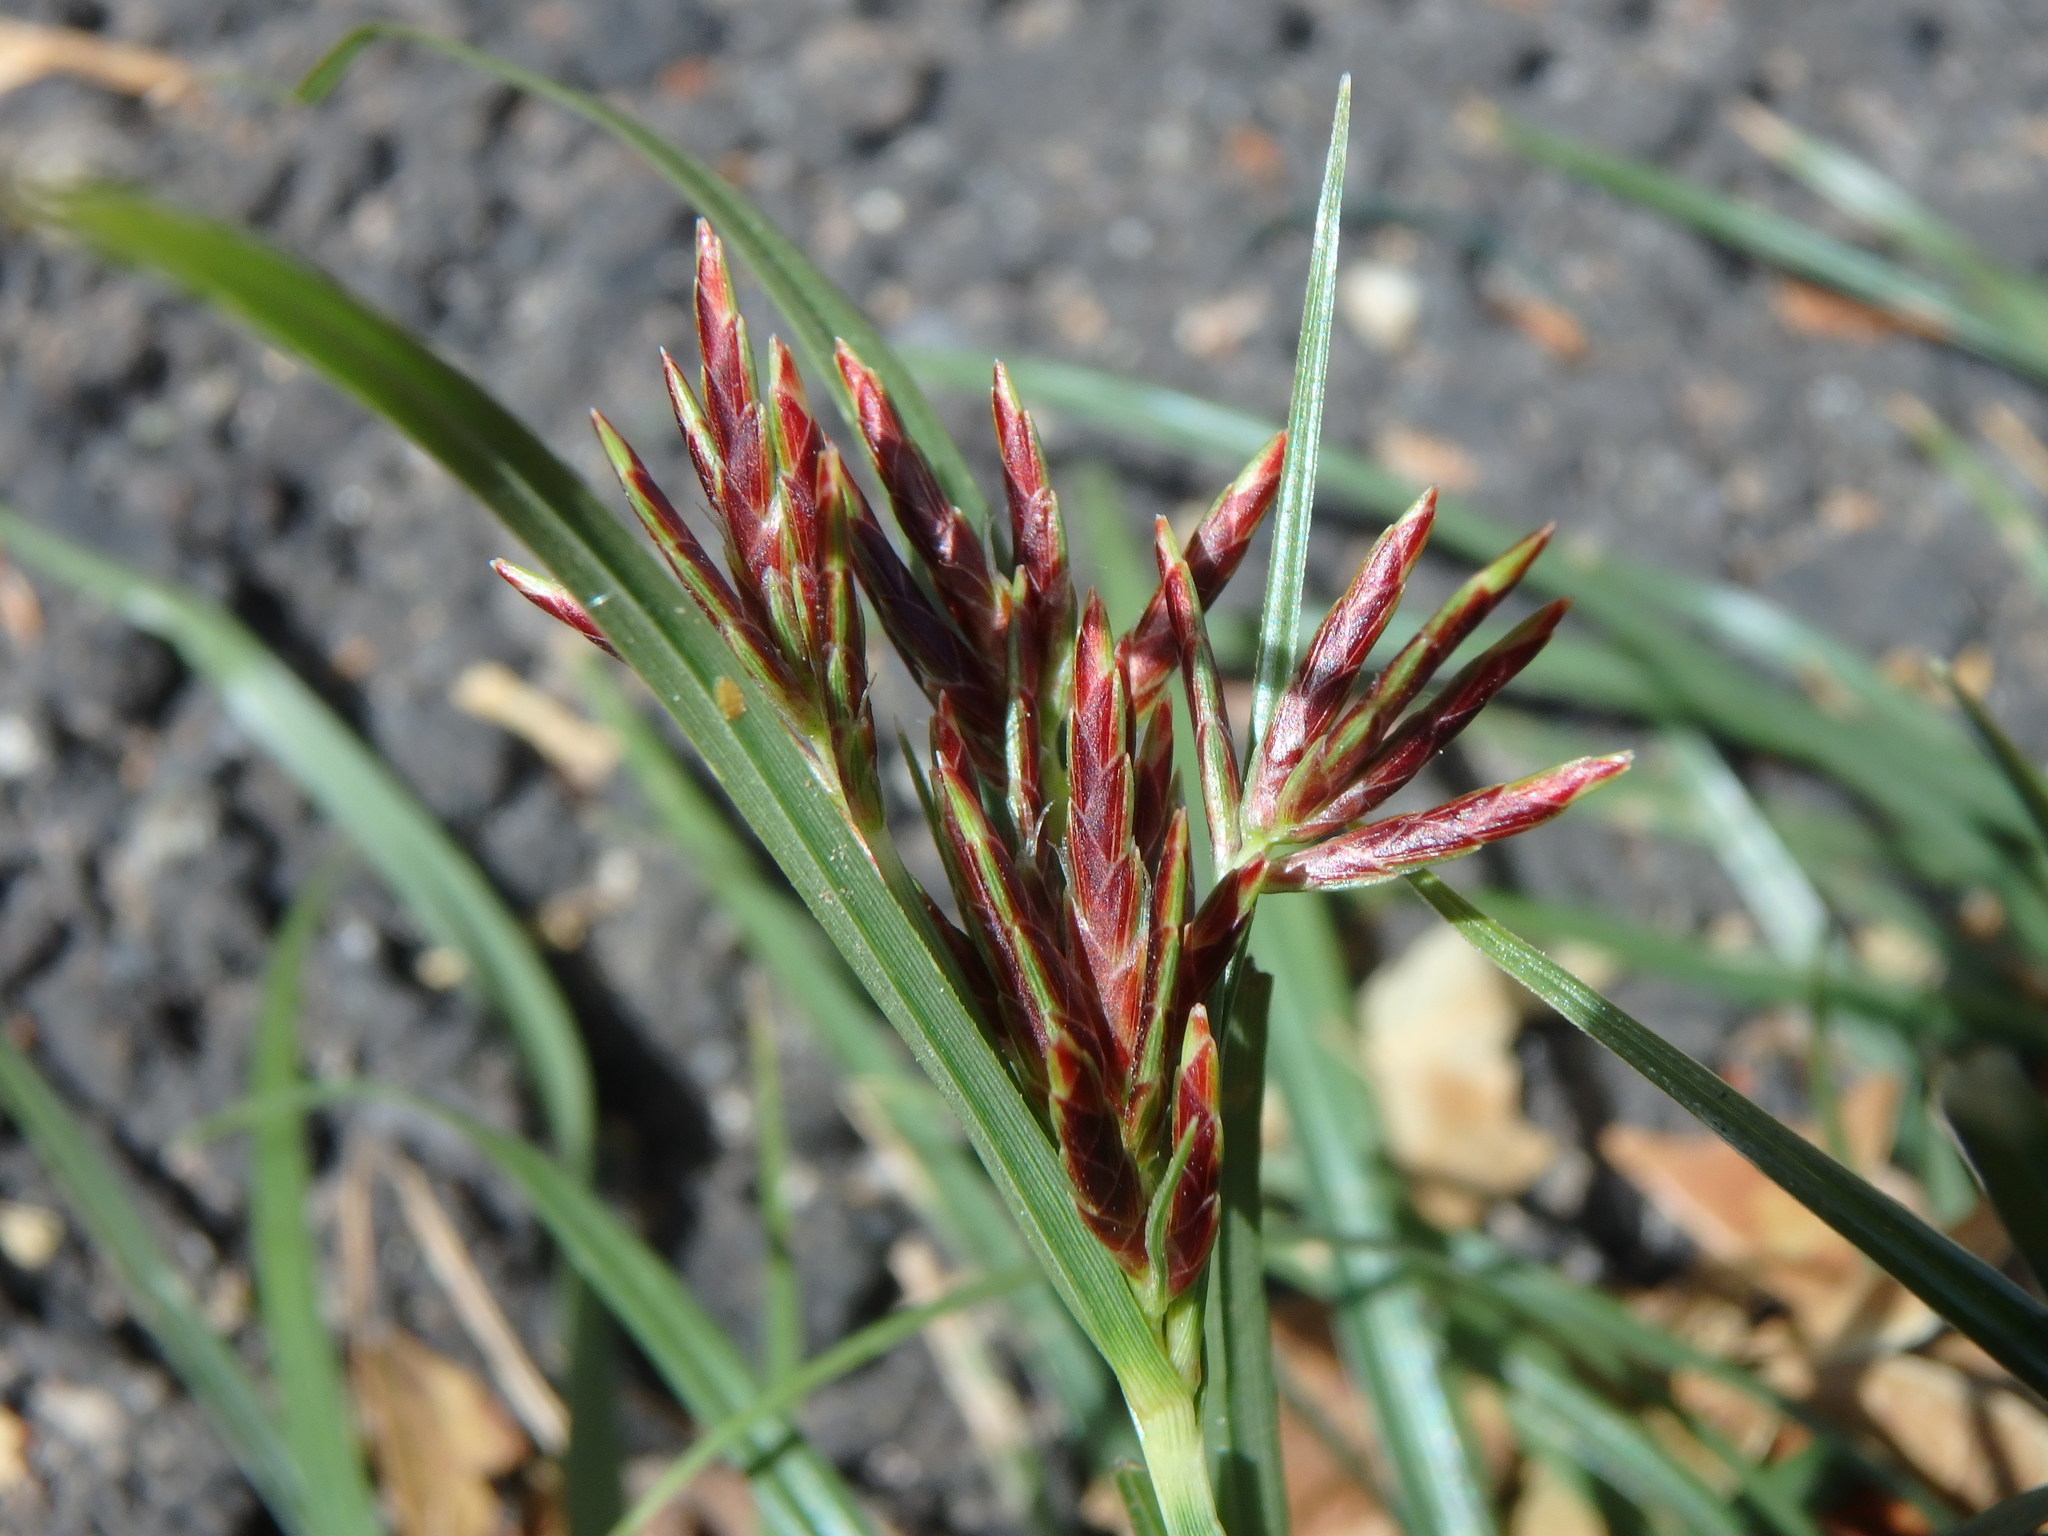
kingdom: Plantae
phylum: Tracheophyta
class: Liliopsida
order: Poales
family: Cyperaceae
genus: Cyperus
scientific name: Cyperus rotundus
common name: Nutgrass
